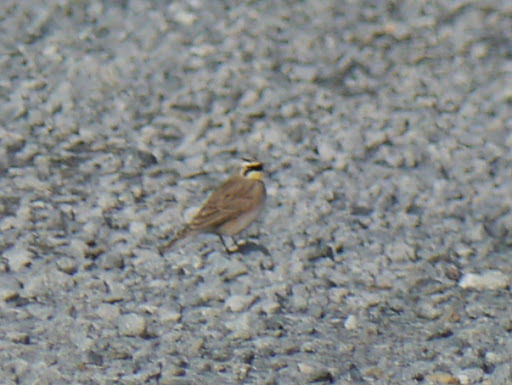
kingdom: Animalia
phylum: Chordata
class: Aves
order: Passeriformes
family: Alaudidae
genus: Eremophila
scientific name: Eremophila alpestris
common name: Horned lark
